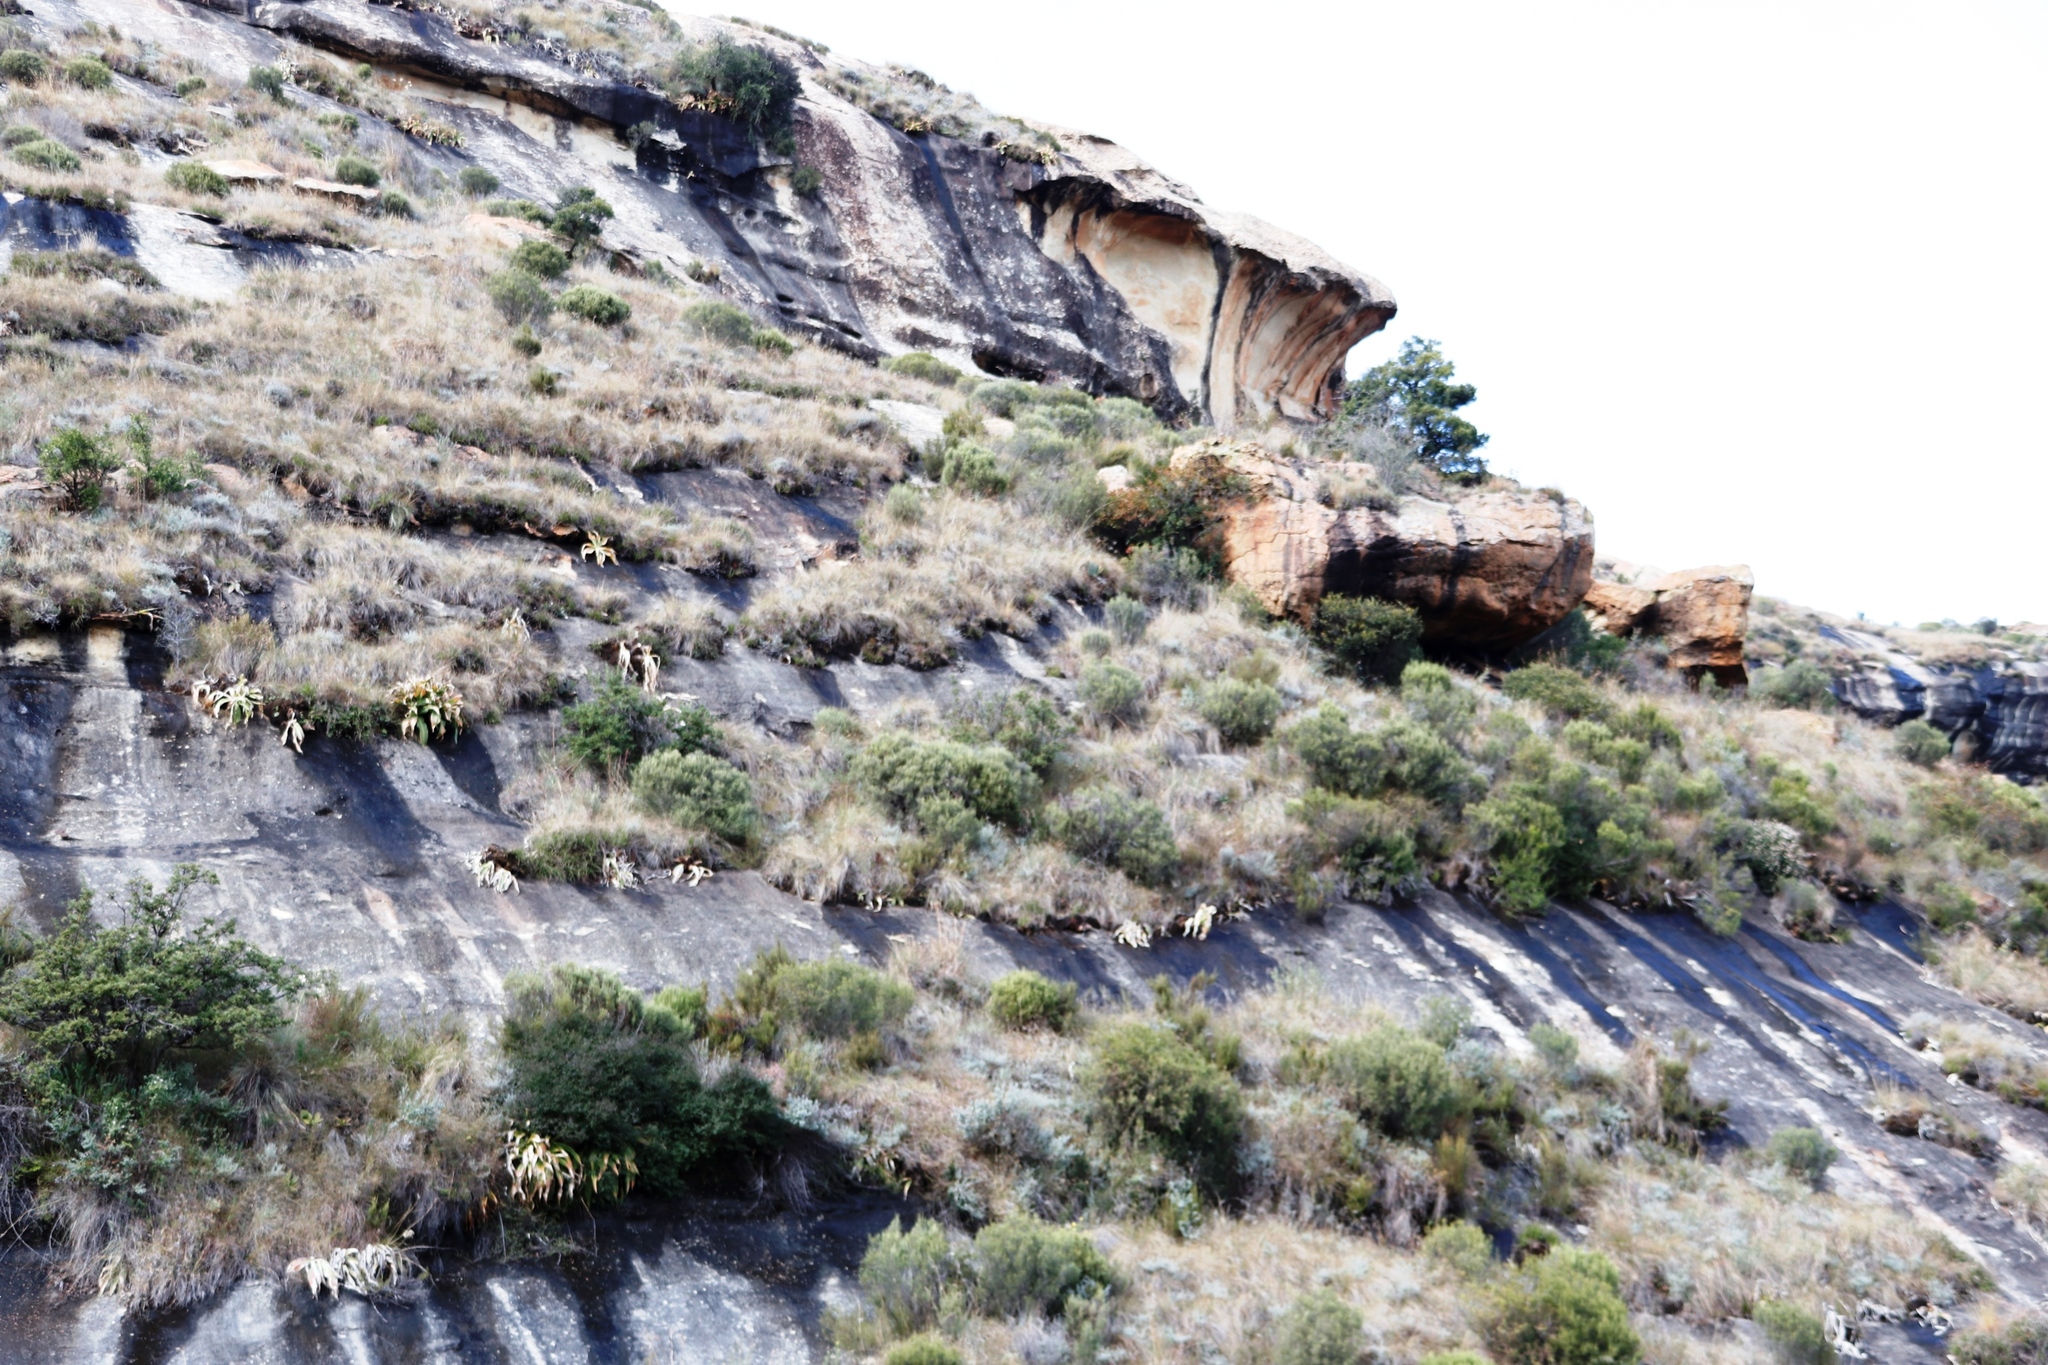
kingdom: Plantae
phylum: Tracheophyta
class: Liliopsida
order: Asparagales
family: Asparagaceae
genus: Merwilla
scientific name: Merwilla plumbea
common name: Blue-squill
